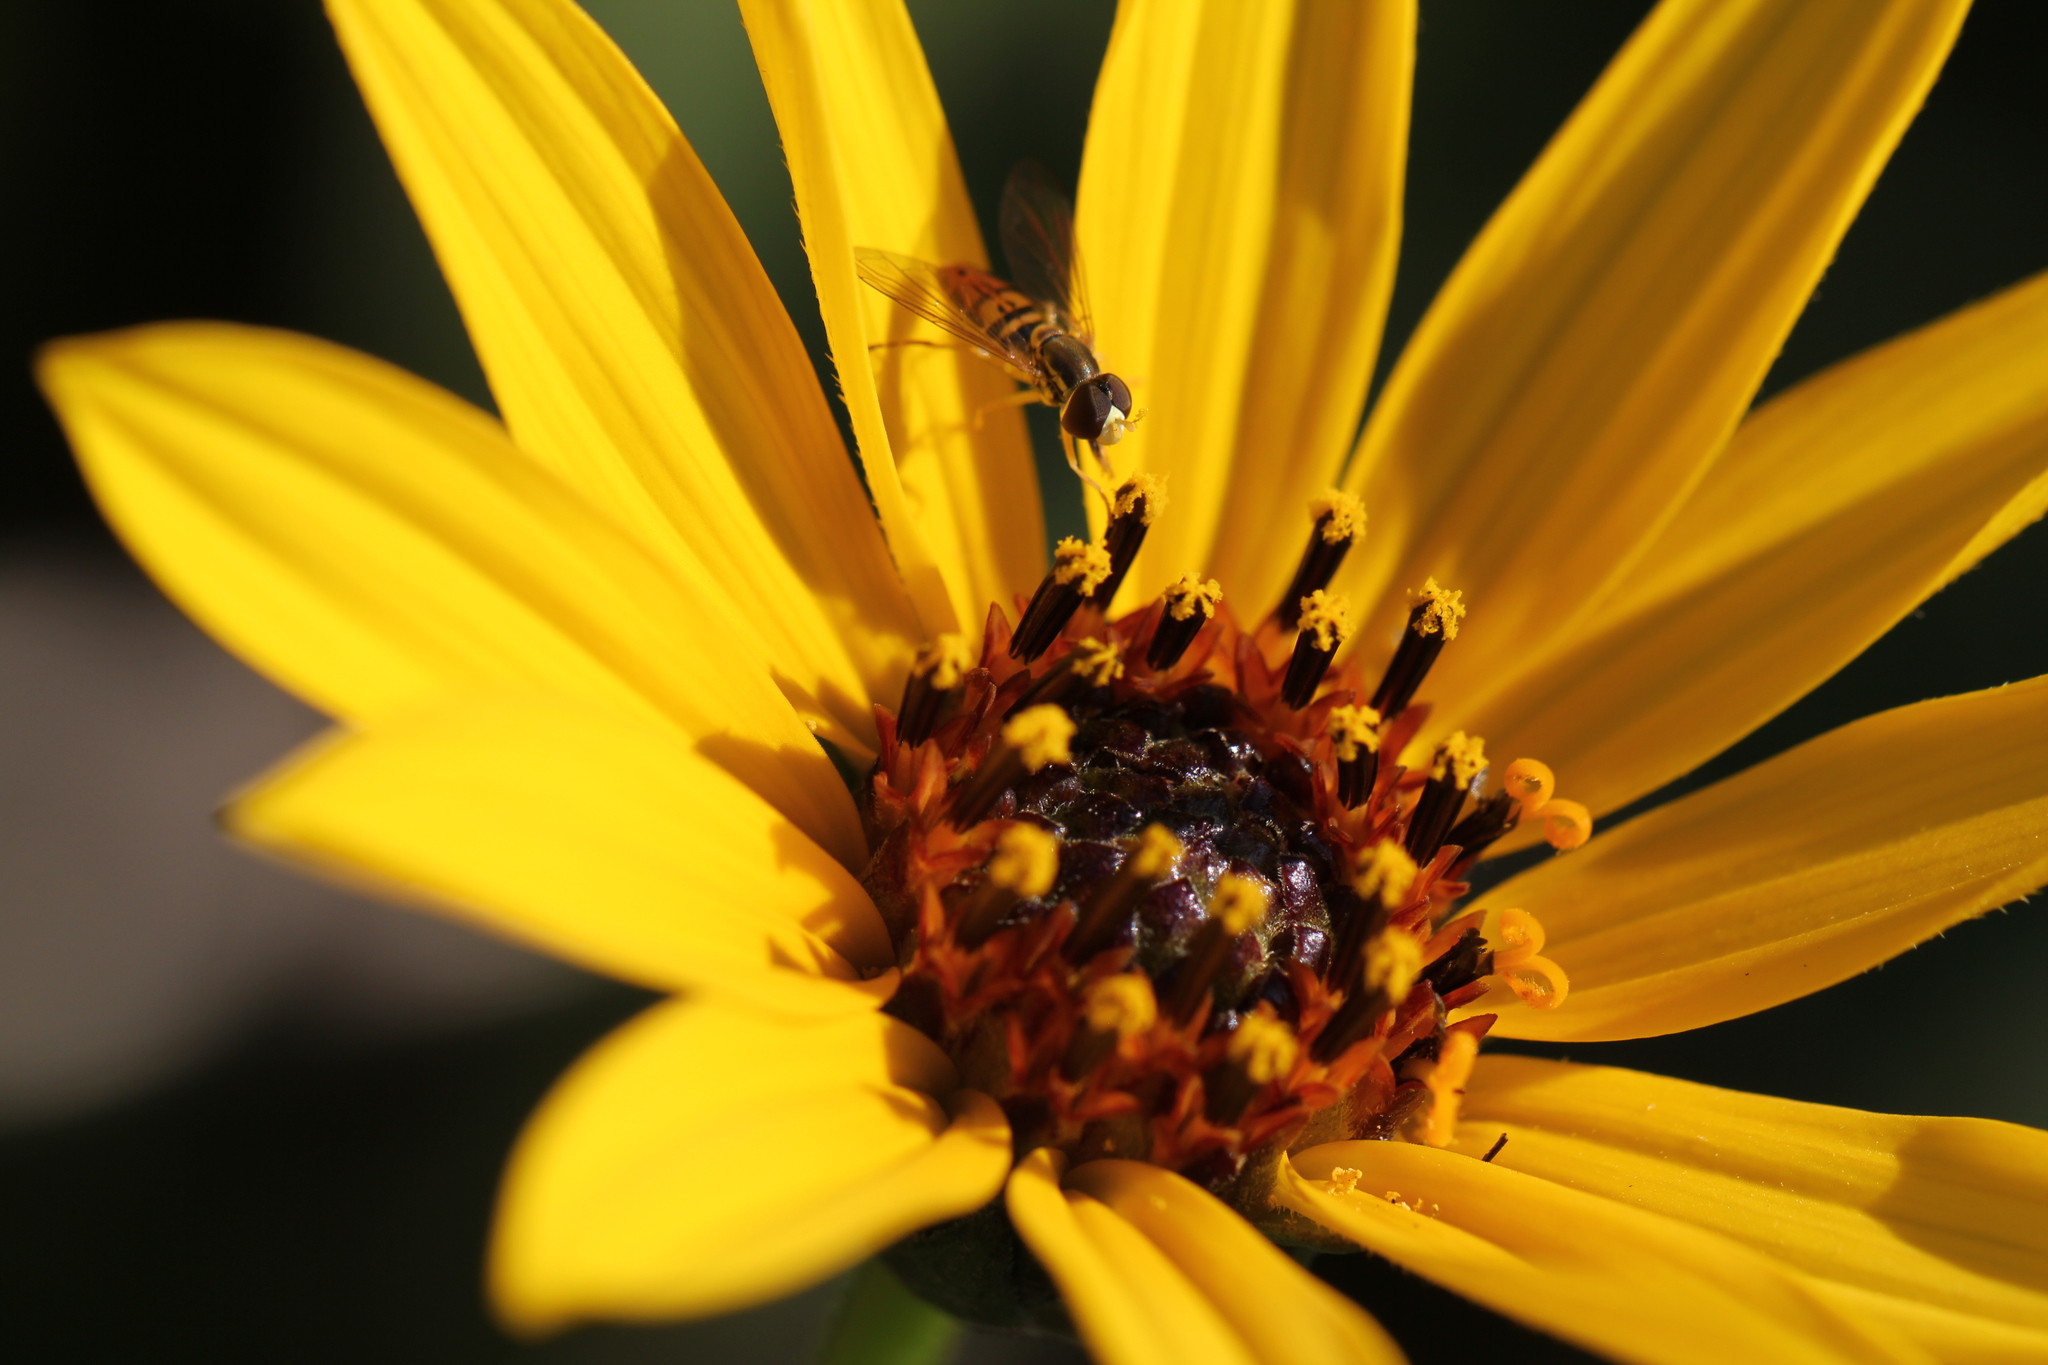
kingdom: Animalia
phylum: Arthropoda
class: Insecta
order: Diptera
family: Syrphidae
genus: Toxomerus
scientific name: Toxomerus marginatus
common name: Syrphid fly
